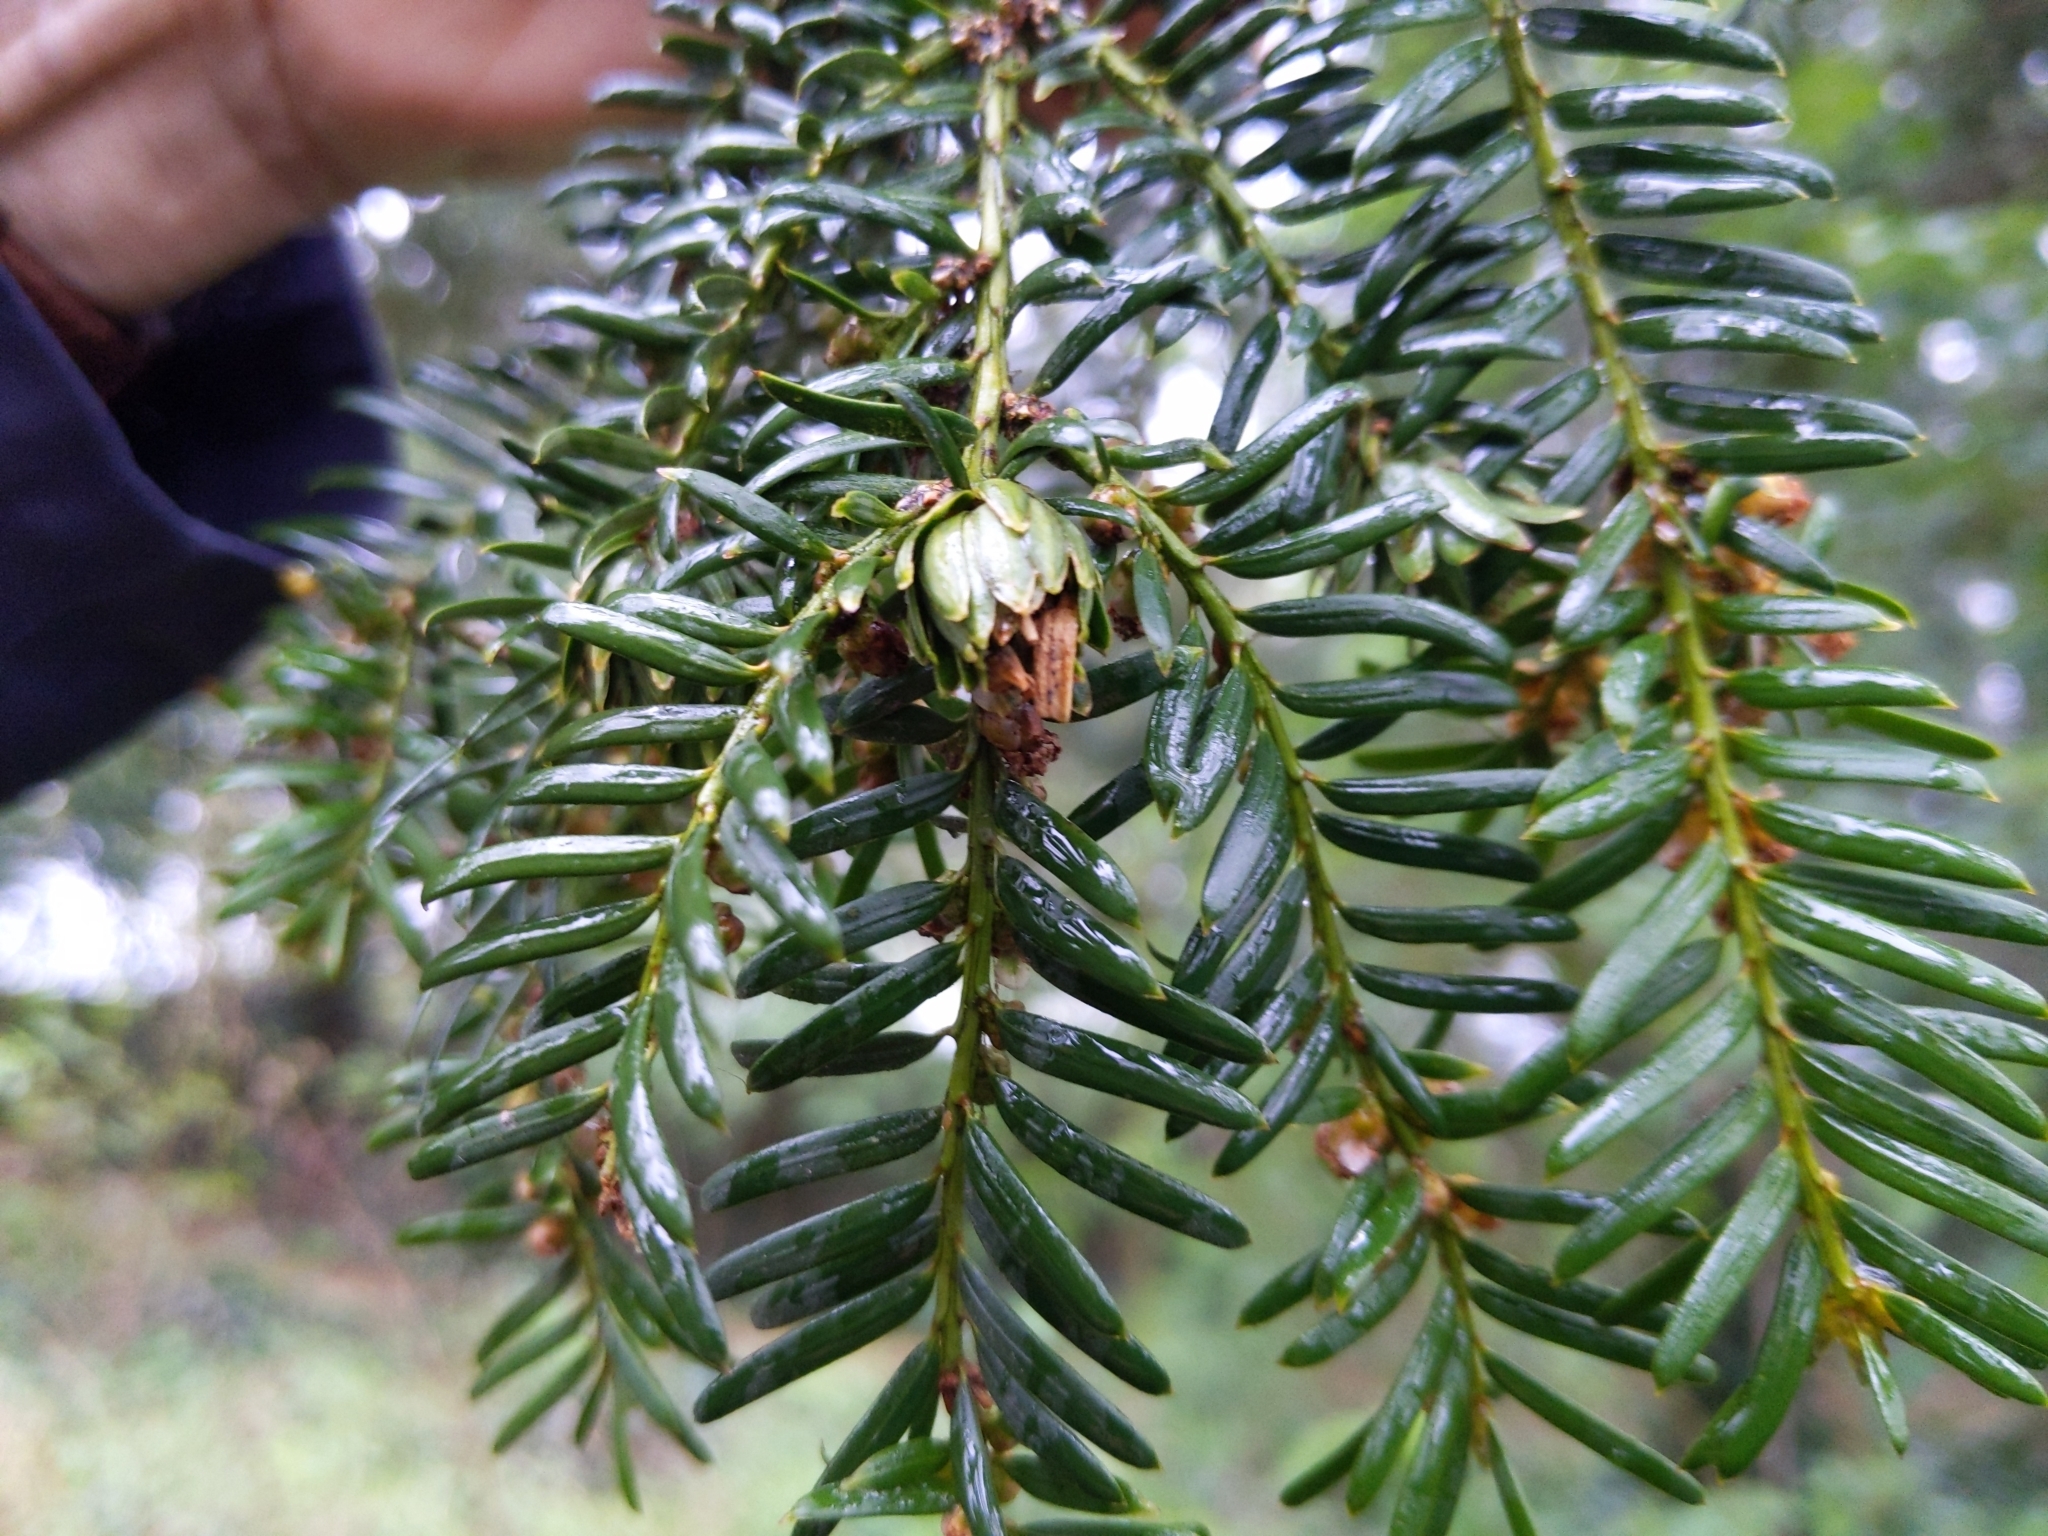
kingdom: Animalia
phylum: Arthropoda
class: Insecta
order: Diptera
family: Cecidomyiidae
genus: Taxomyia
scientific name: Taxomyia taxi
